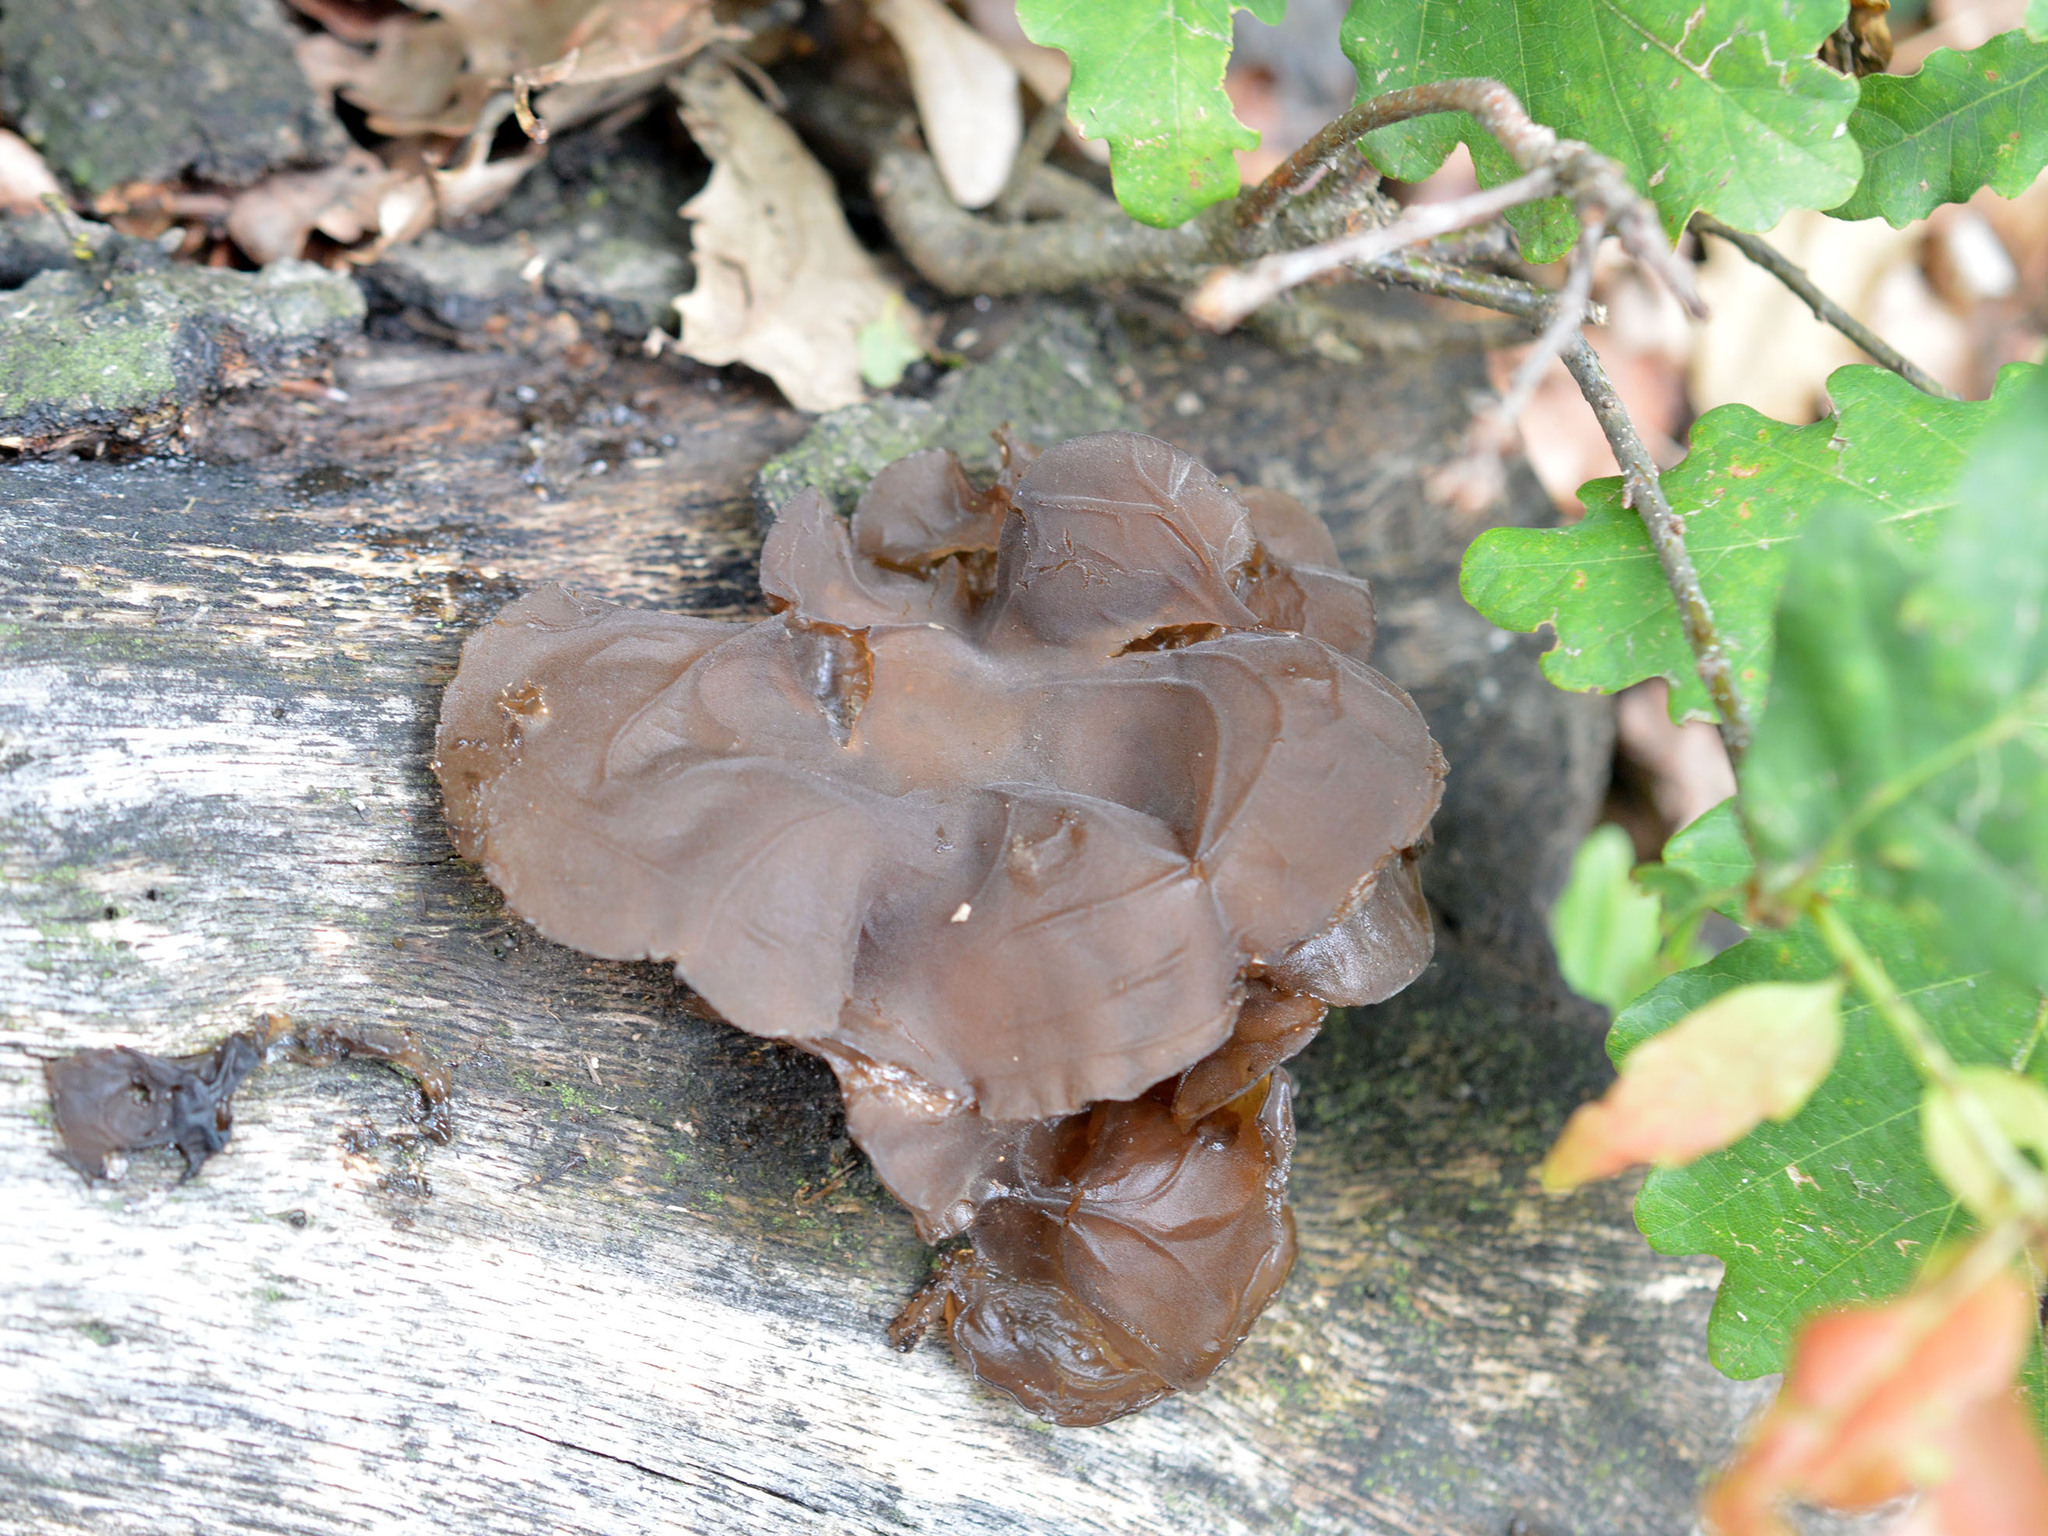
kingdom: Fungi
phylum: Basidiomycota
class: Agaricomycetes
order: Auriculariales
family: Auriculariaceae
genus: Auricularia
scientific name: Auricularia auricula-judae
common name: Jelly ear
